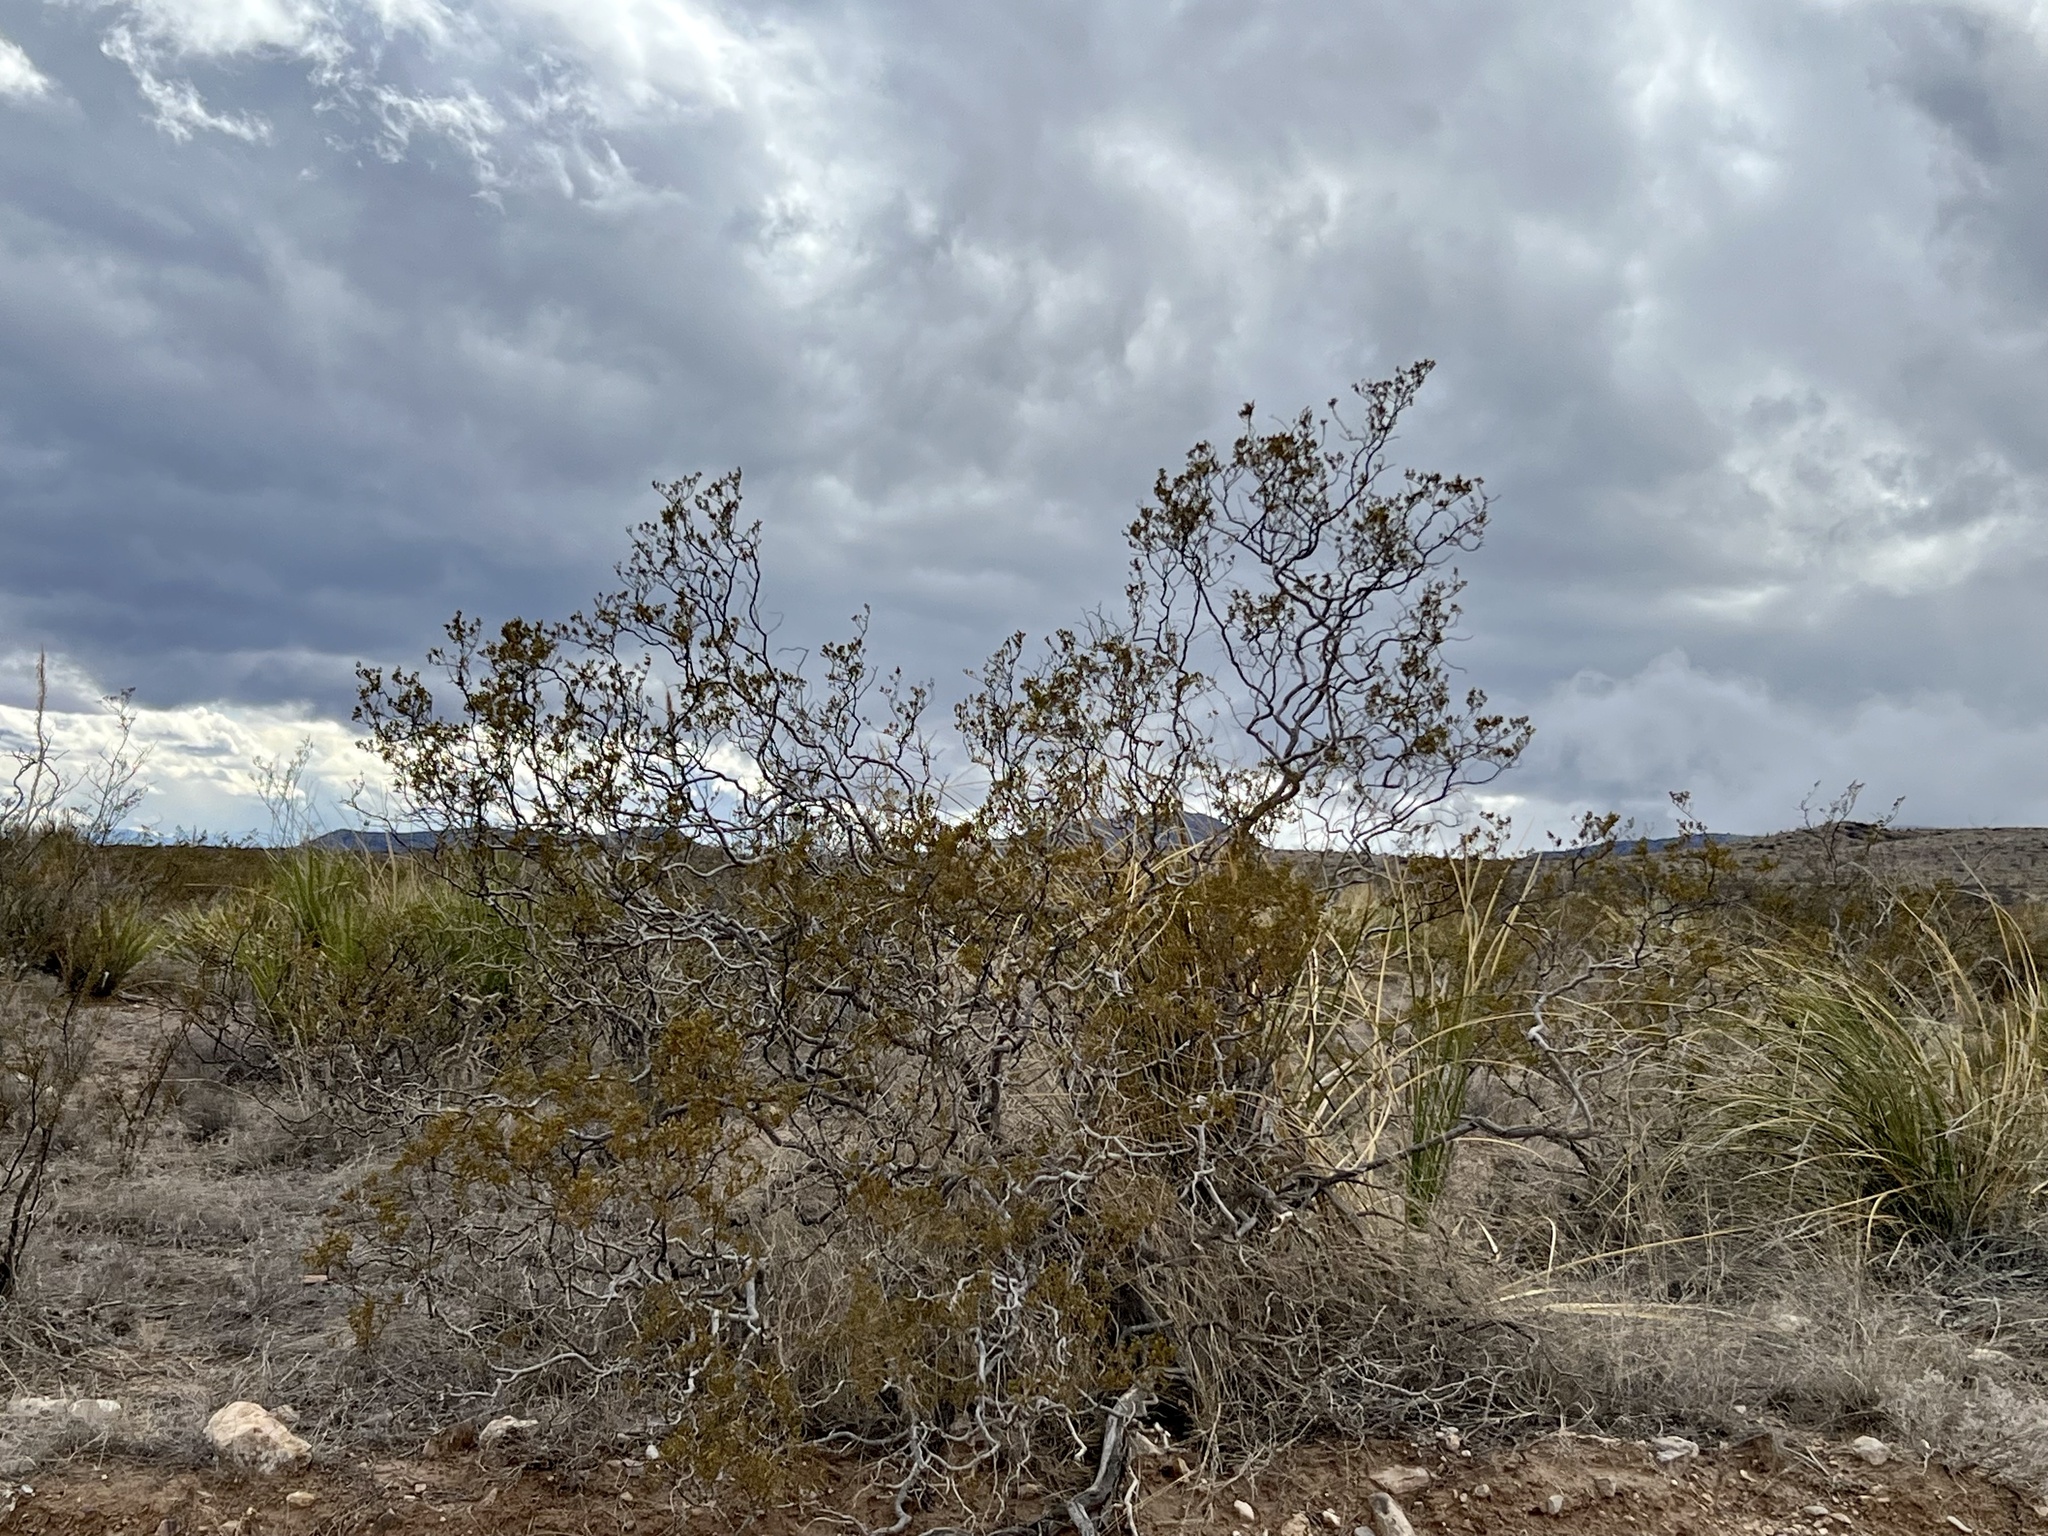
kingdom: Plantae
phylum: Tracheophyta
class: Magnoliopsida
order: Zygophyllales
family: Zygophyllaceae
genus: Larrea
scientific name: Larrea tridentata
